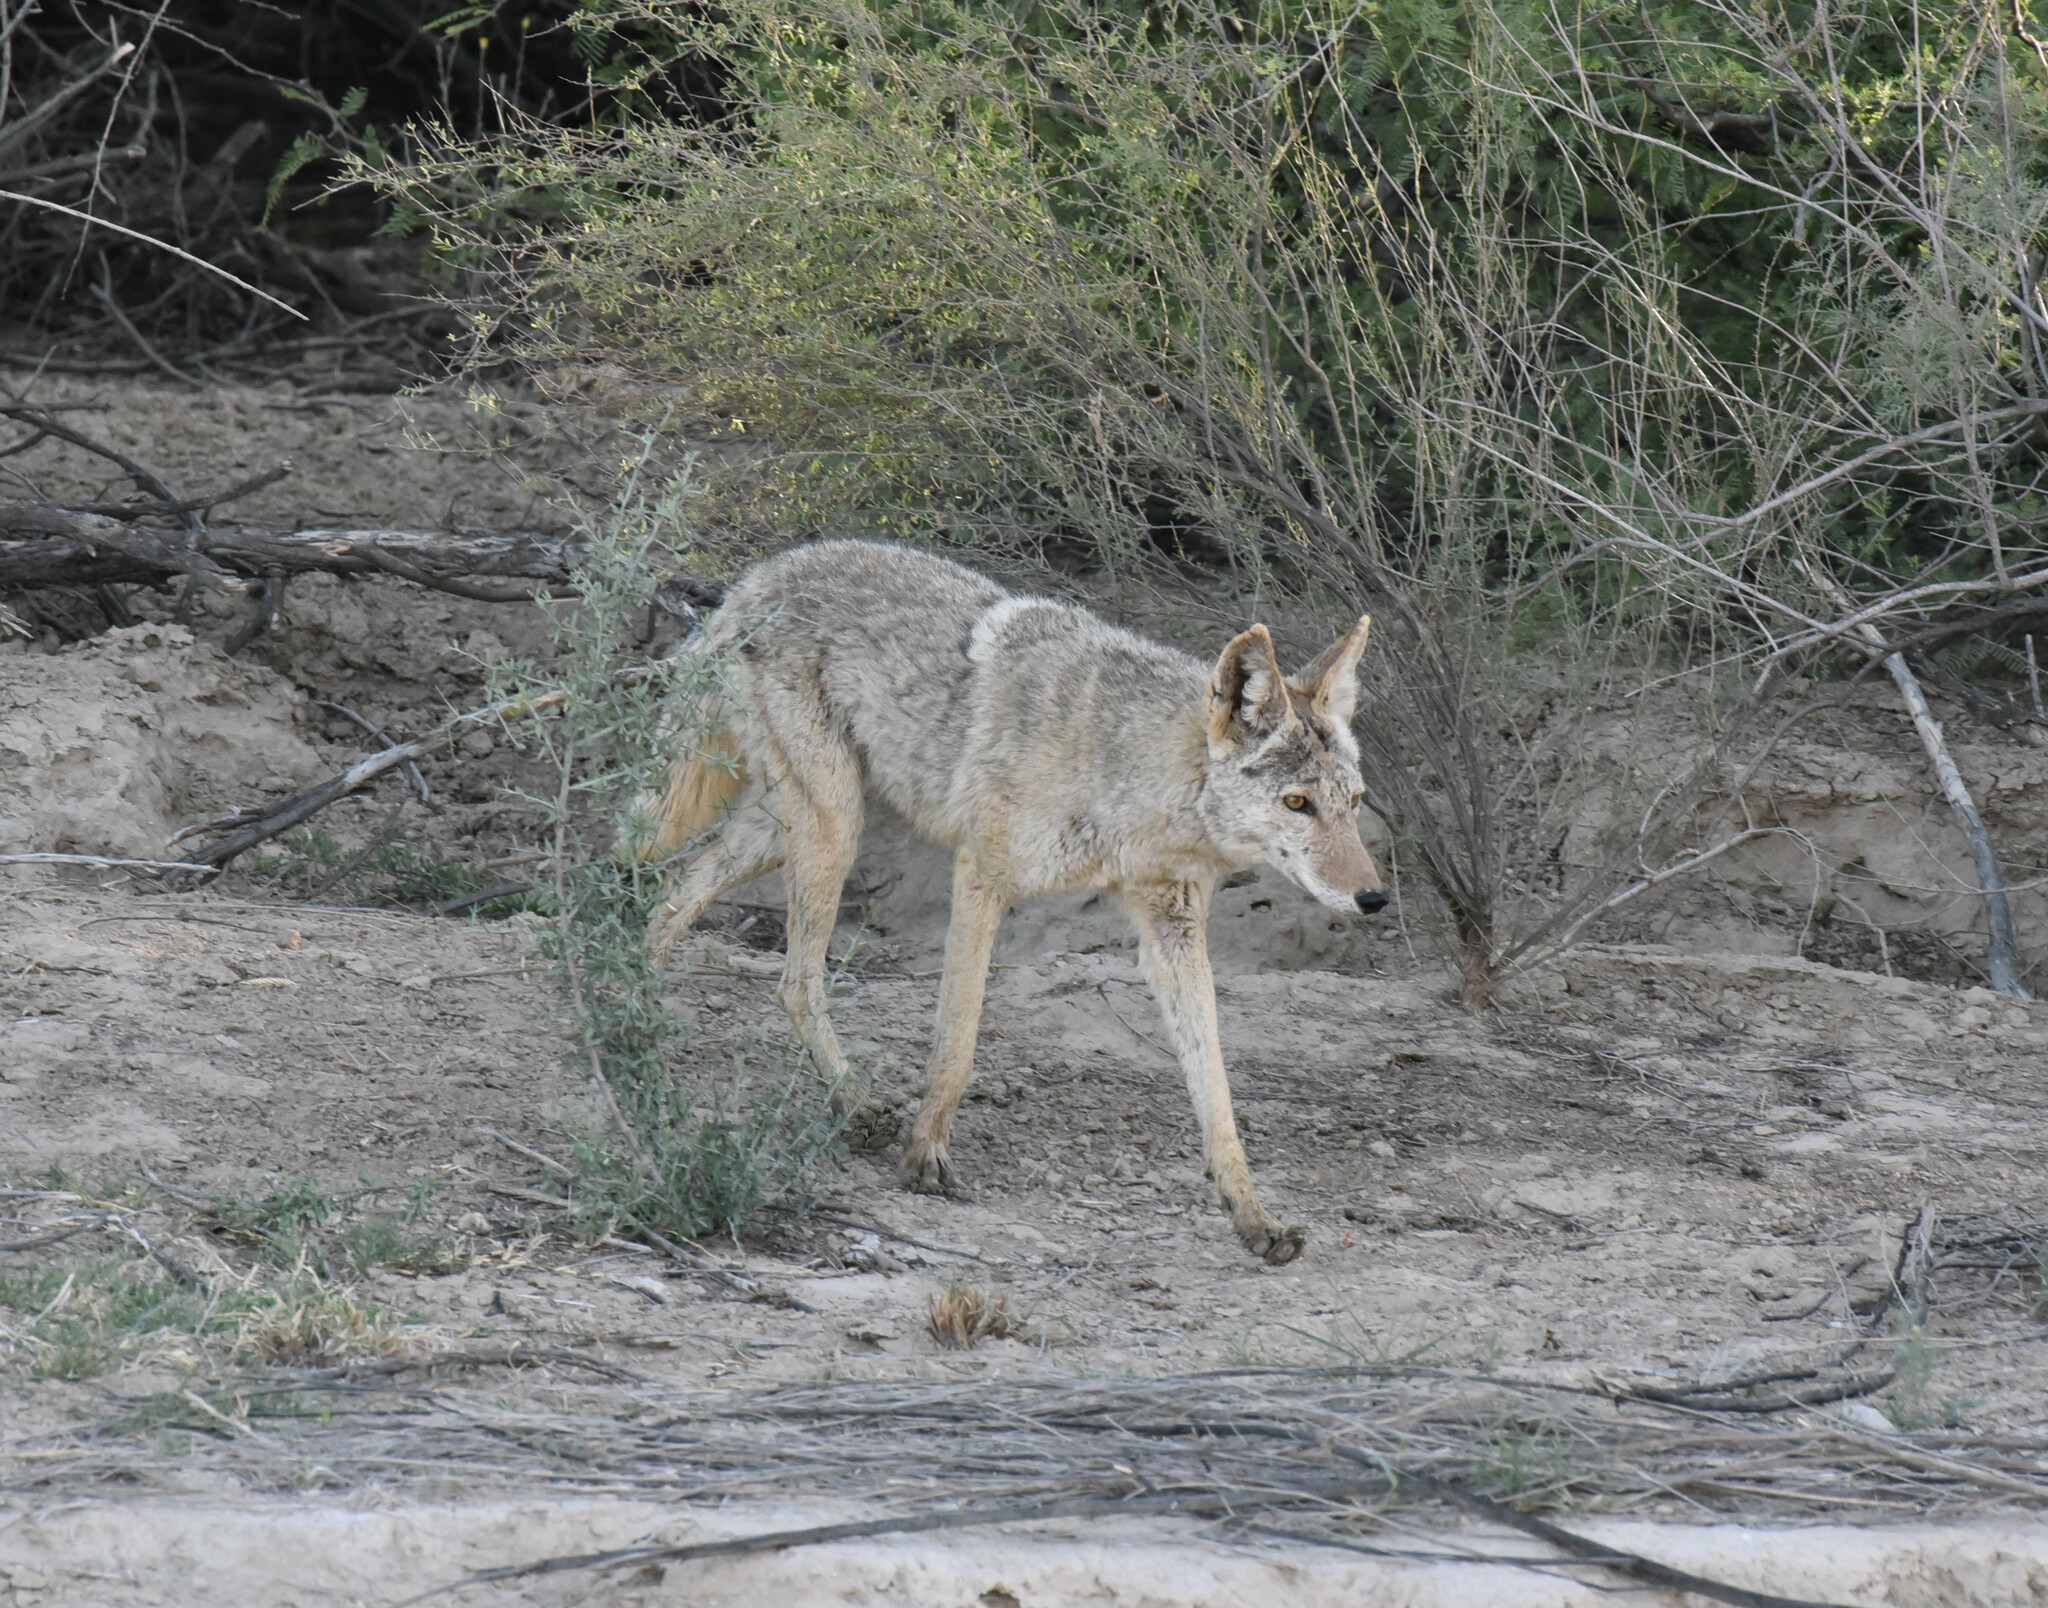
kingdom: Animalia
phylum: Chordata
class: Mammalia
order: Carnivora
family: Canidae
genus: Canis
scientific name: Canis latrans
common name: Coyote
